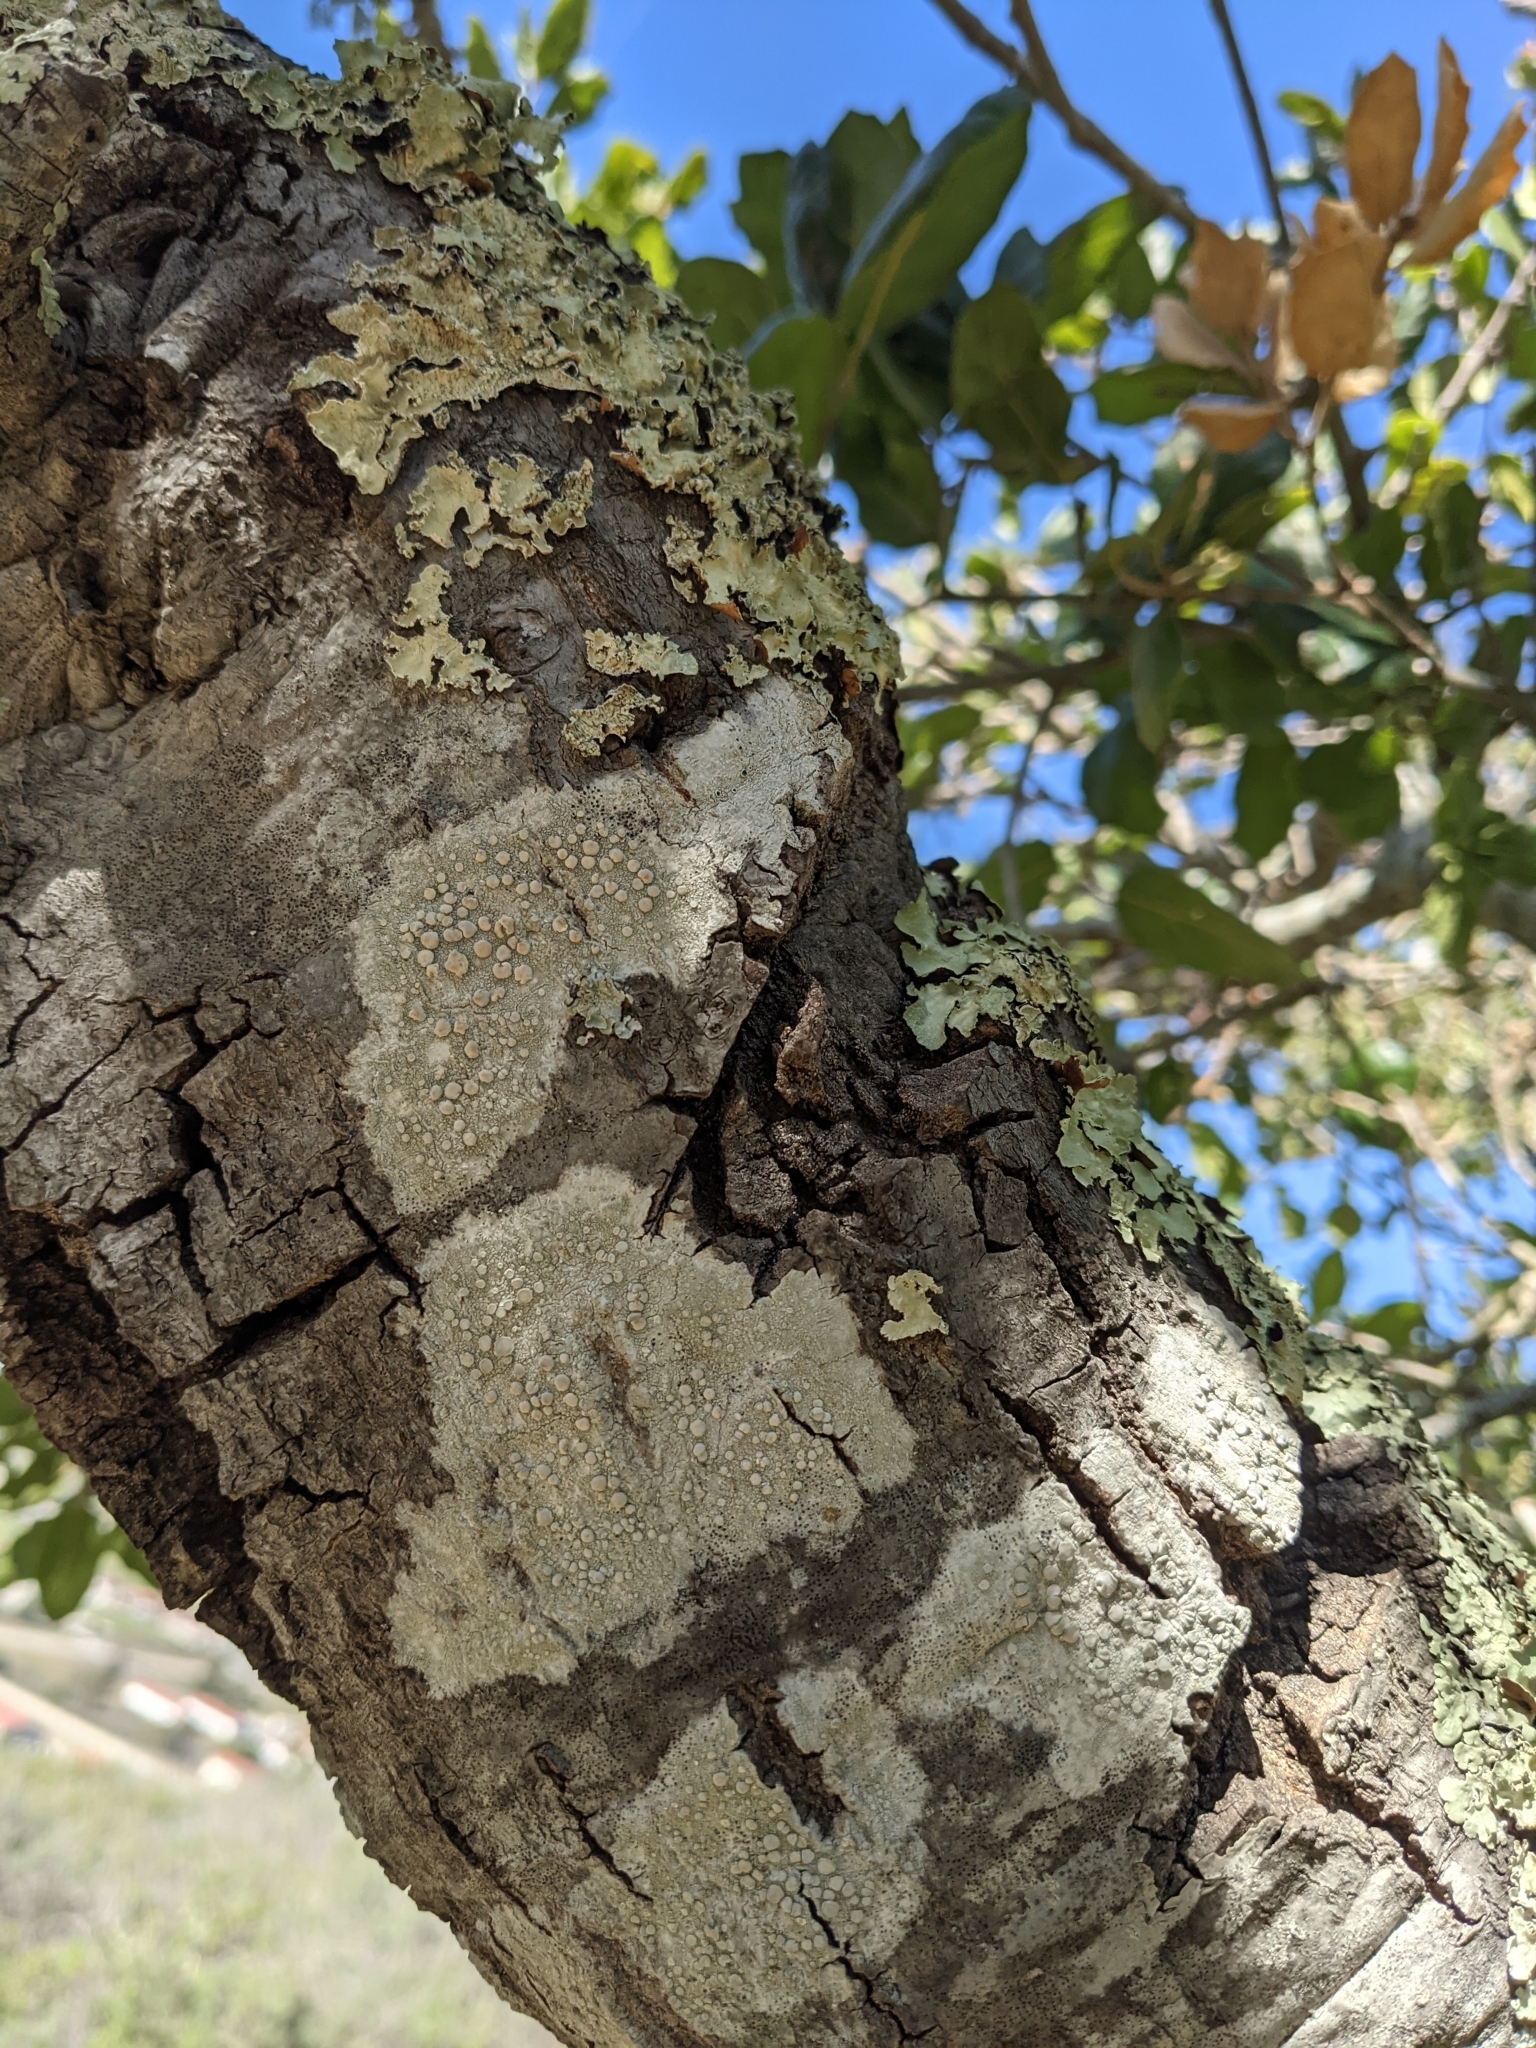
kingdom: Fungi
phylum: Ascomycota
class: Lecanoromycetes
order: Lecanorales
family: Lecanoraceae
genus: Lecanora
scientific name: Lecanora caesiorubella
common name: Frosted rim-lichen
